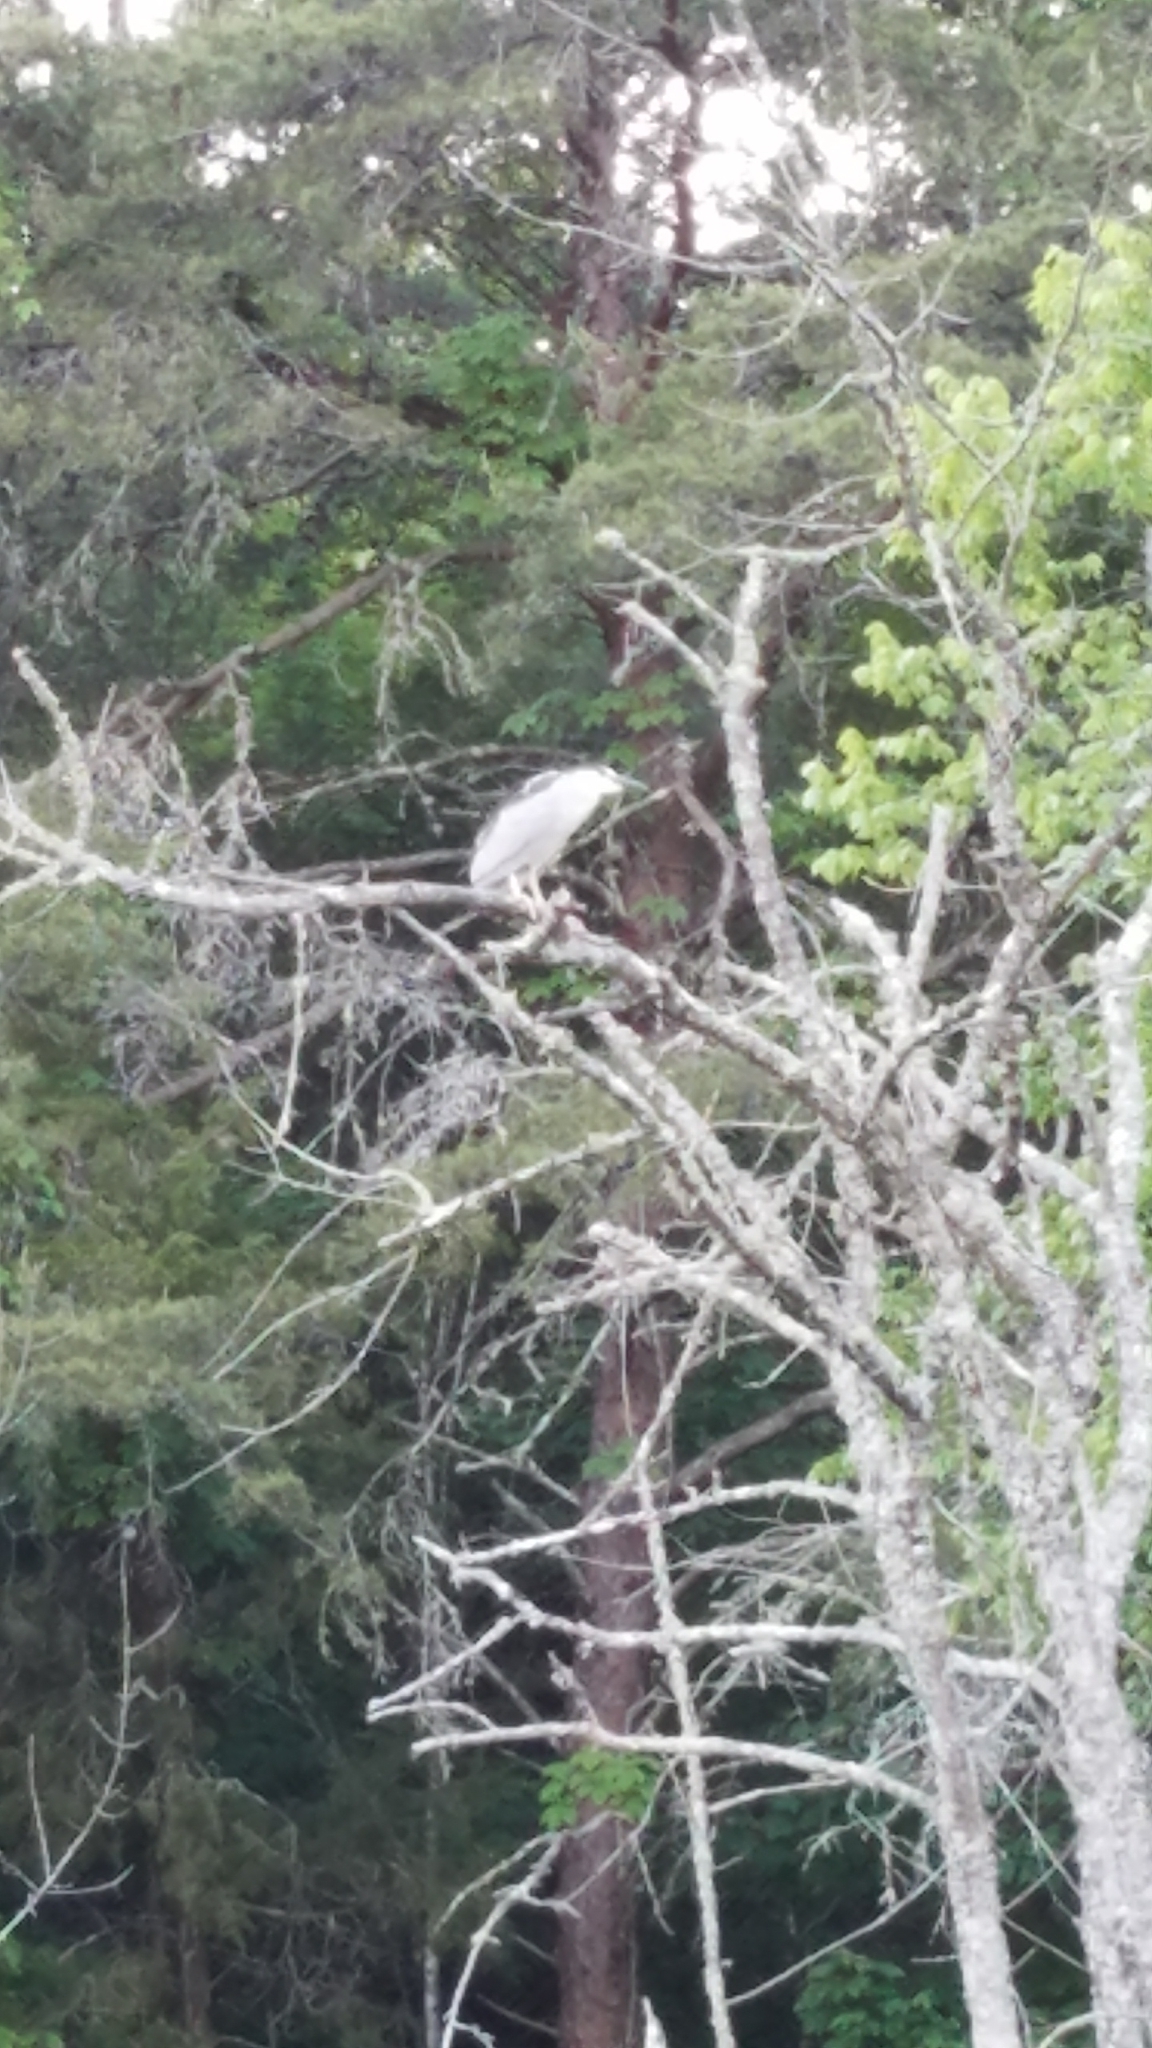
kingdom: Animalia
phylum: Chordata
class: Aves
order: Pelecaniformes
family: Ardeidae
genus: Nycticorax
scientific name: Nycticorax nycticorax
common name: Black-crowned night heron
